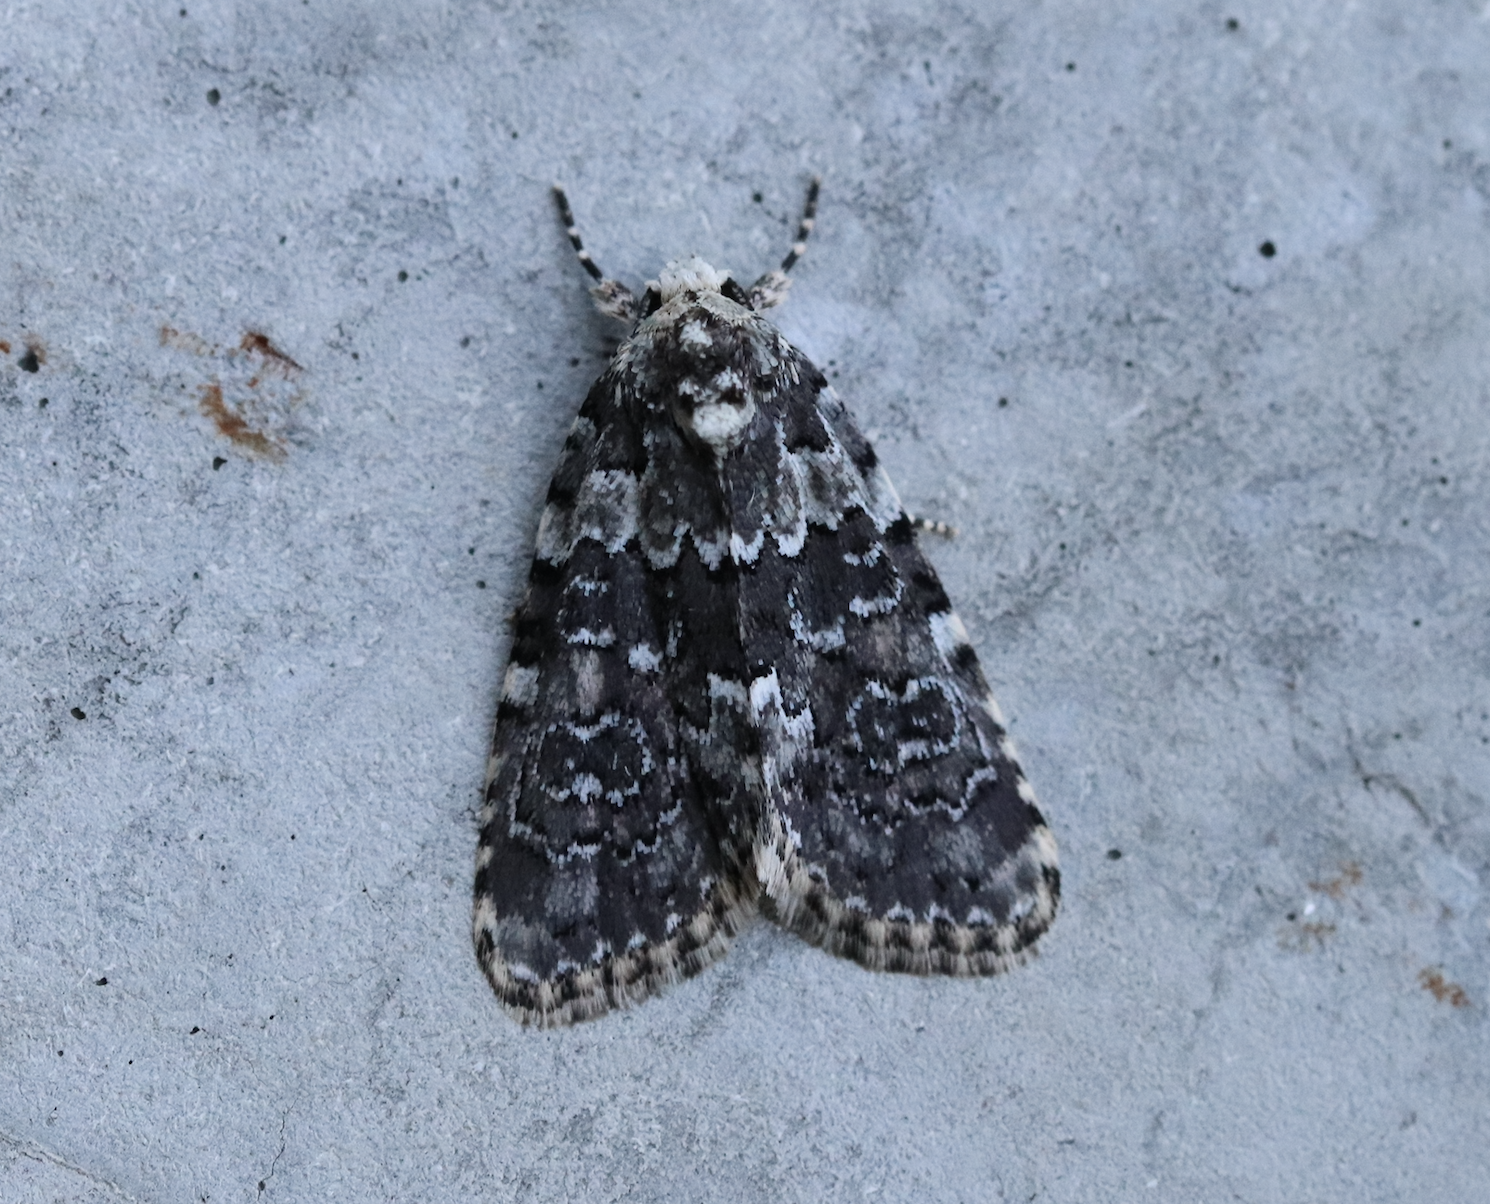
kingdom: Animalia
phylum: Arthropoda
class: Insecta
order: Lepidoptera
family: Noctuidae
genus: Bryophila
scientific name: Bryophila domestica
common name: Marbled beauty
